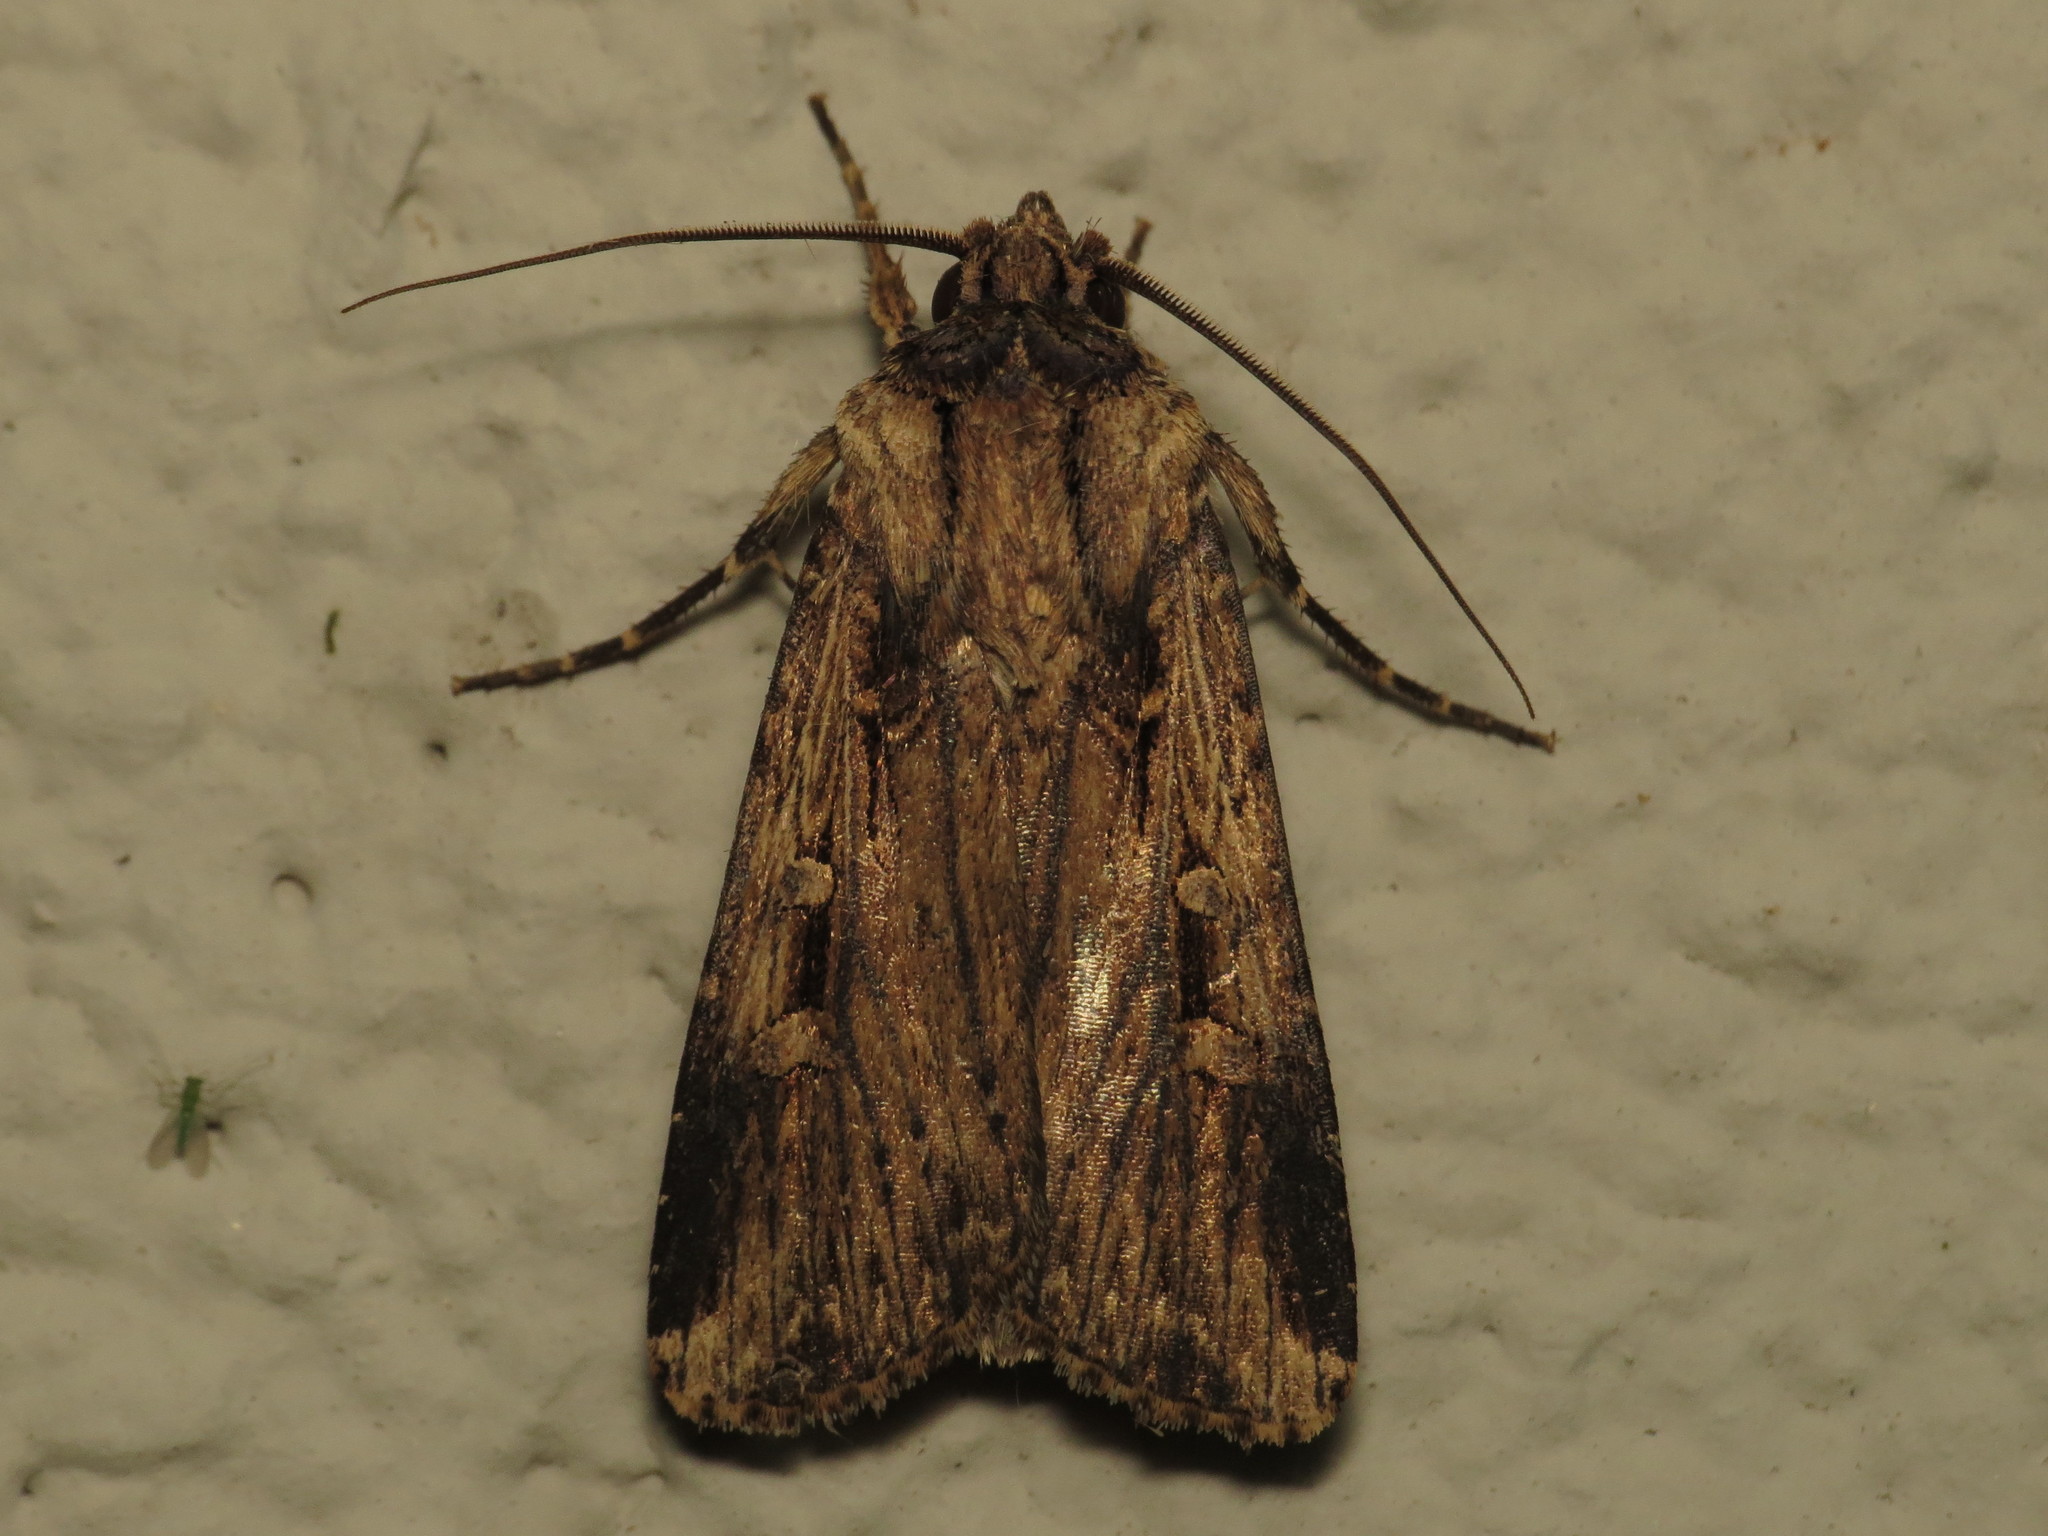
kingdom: Animalia
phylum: Arthropoda
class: Insecta
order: Lepidoptera
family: Noctuidae
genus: Feltia
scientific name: Feltia subterranea
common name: Granulate cutworm
